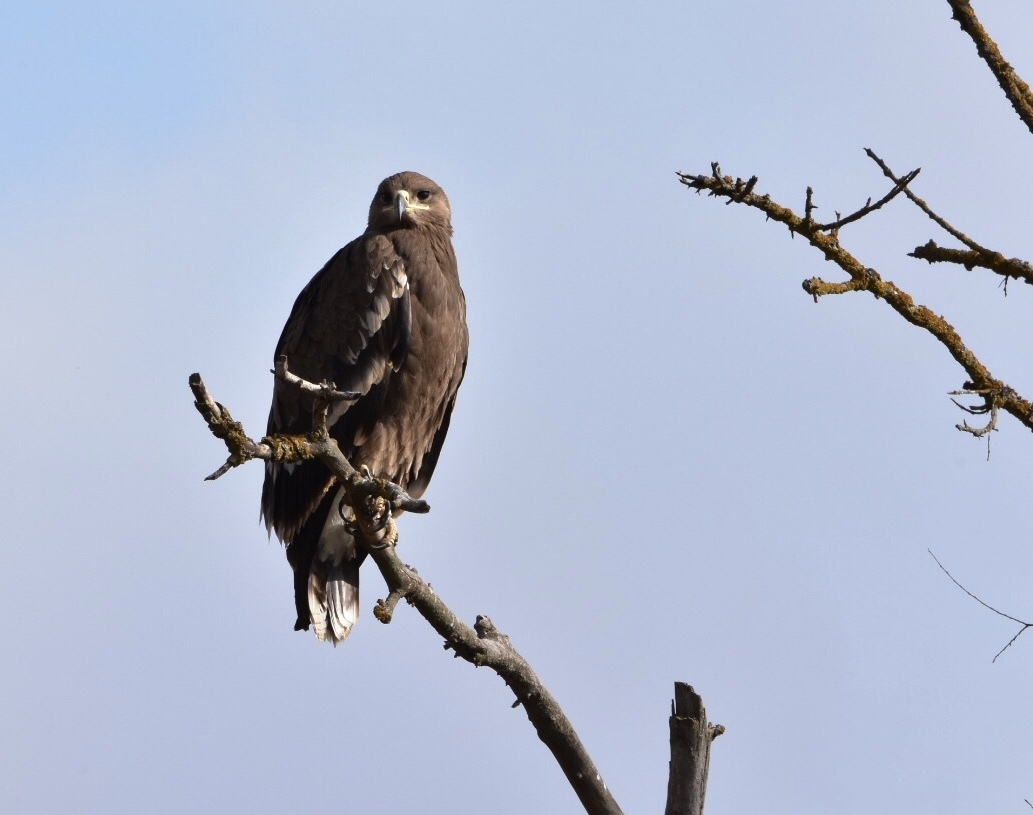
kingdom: Animalia
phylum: Chordata
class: Aves
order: Accipitriformes
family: Accipitridae
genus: Aquila
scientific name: Aquila nipalensis
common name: Steppe eagle
